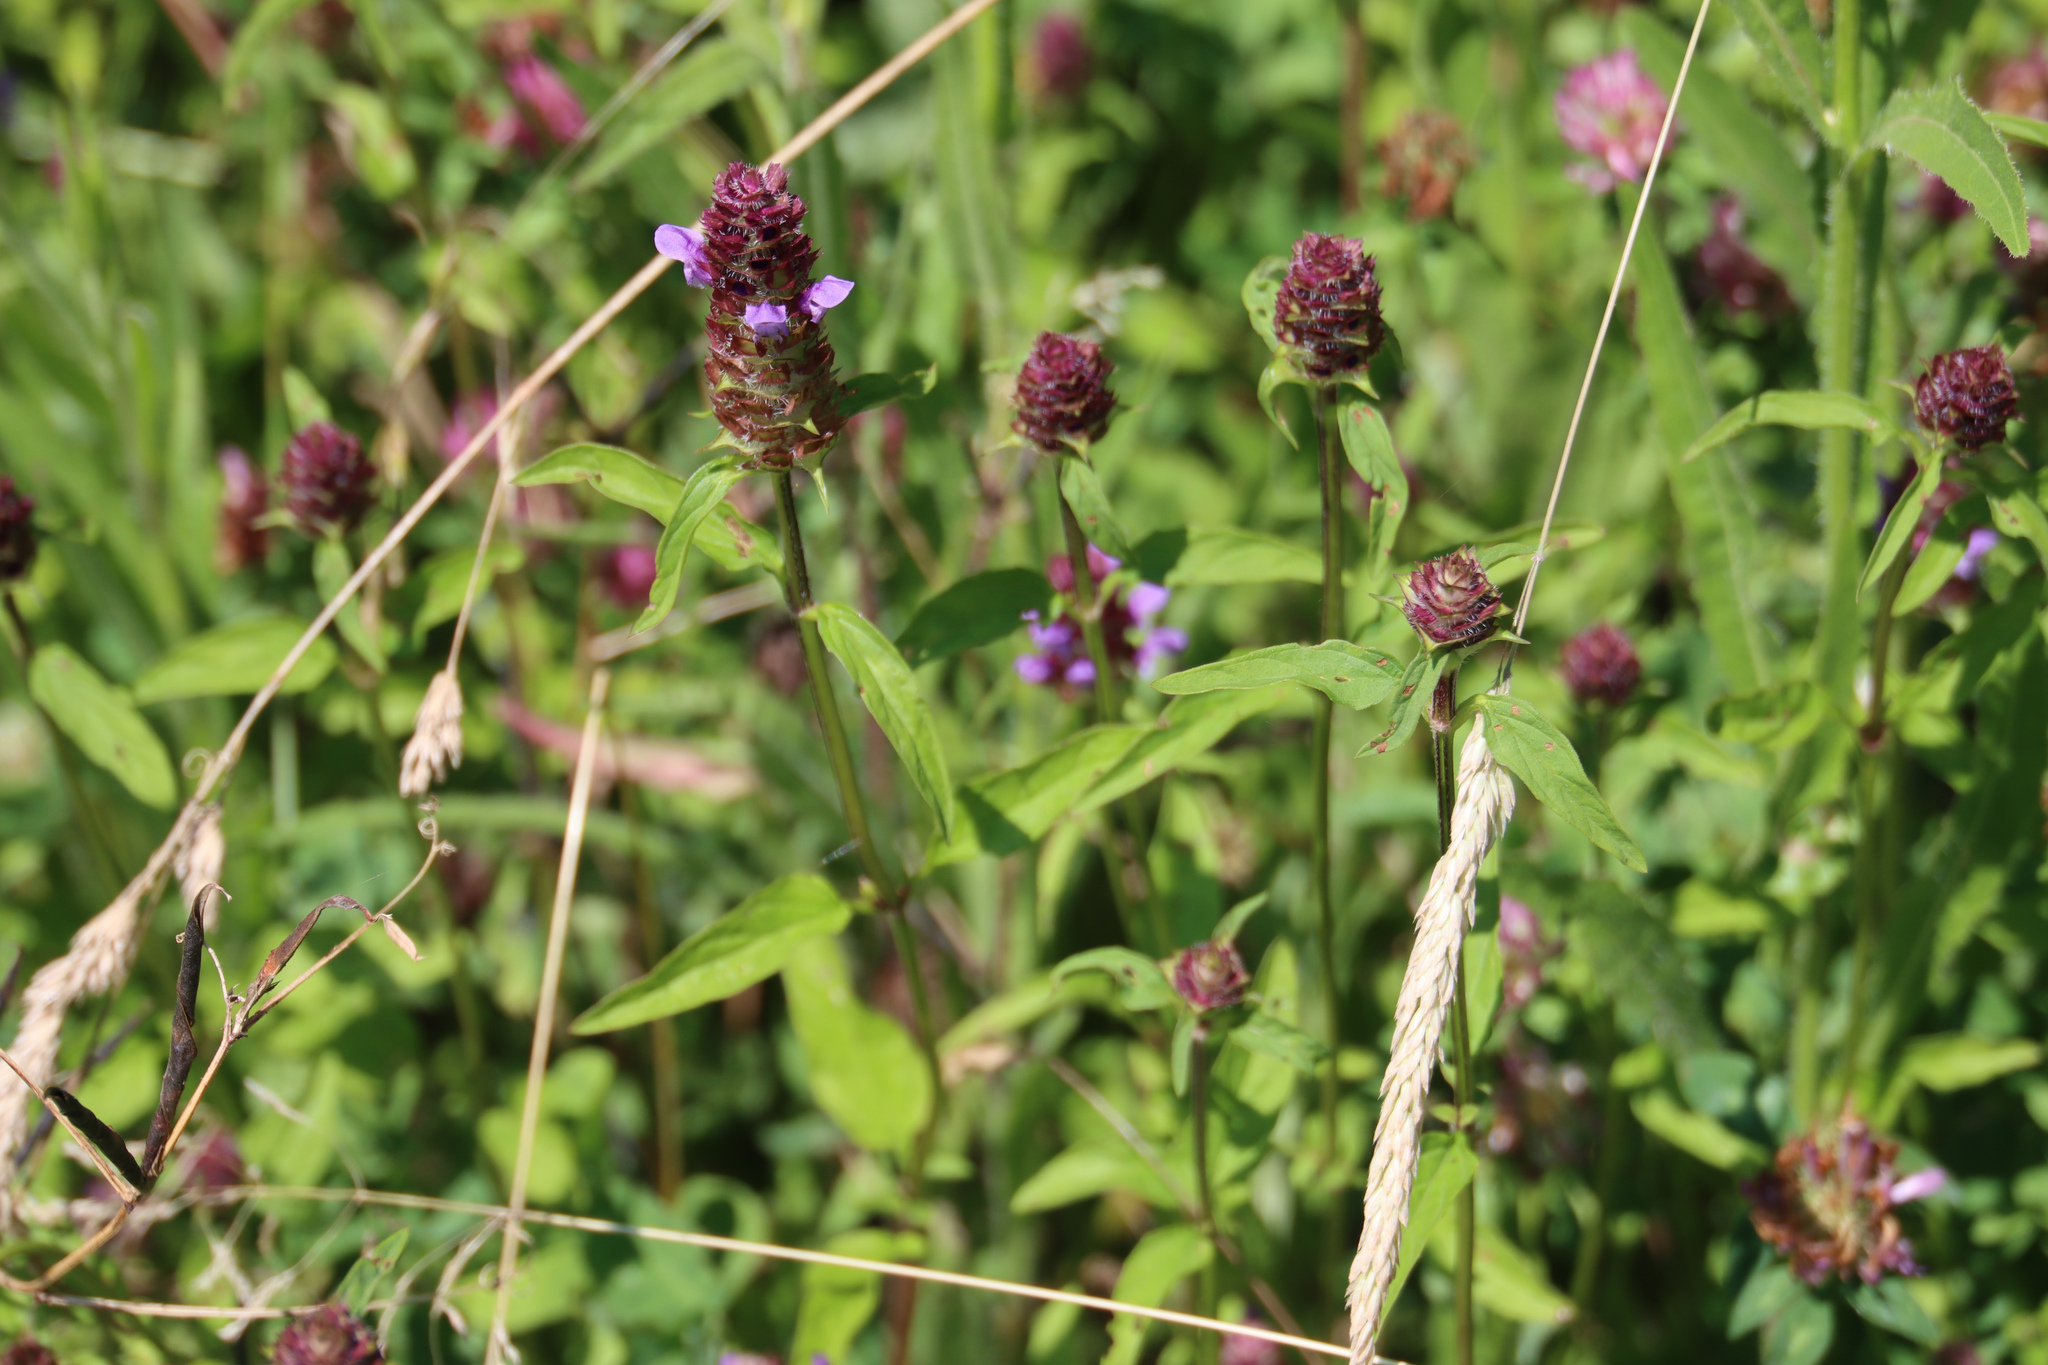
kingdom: Plantae
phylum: Tracheophyta
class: Magnoliopsida
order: Lamiales
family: Lamiaceae
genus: Prunella
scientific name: Prunella vulgaris
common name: Heal-all
